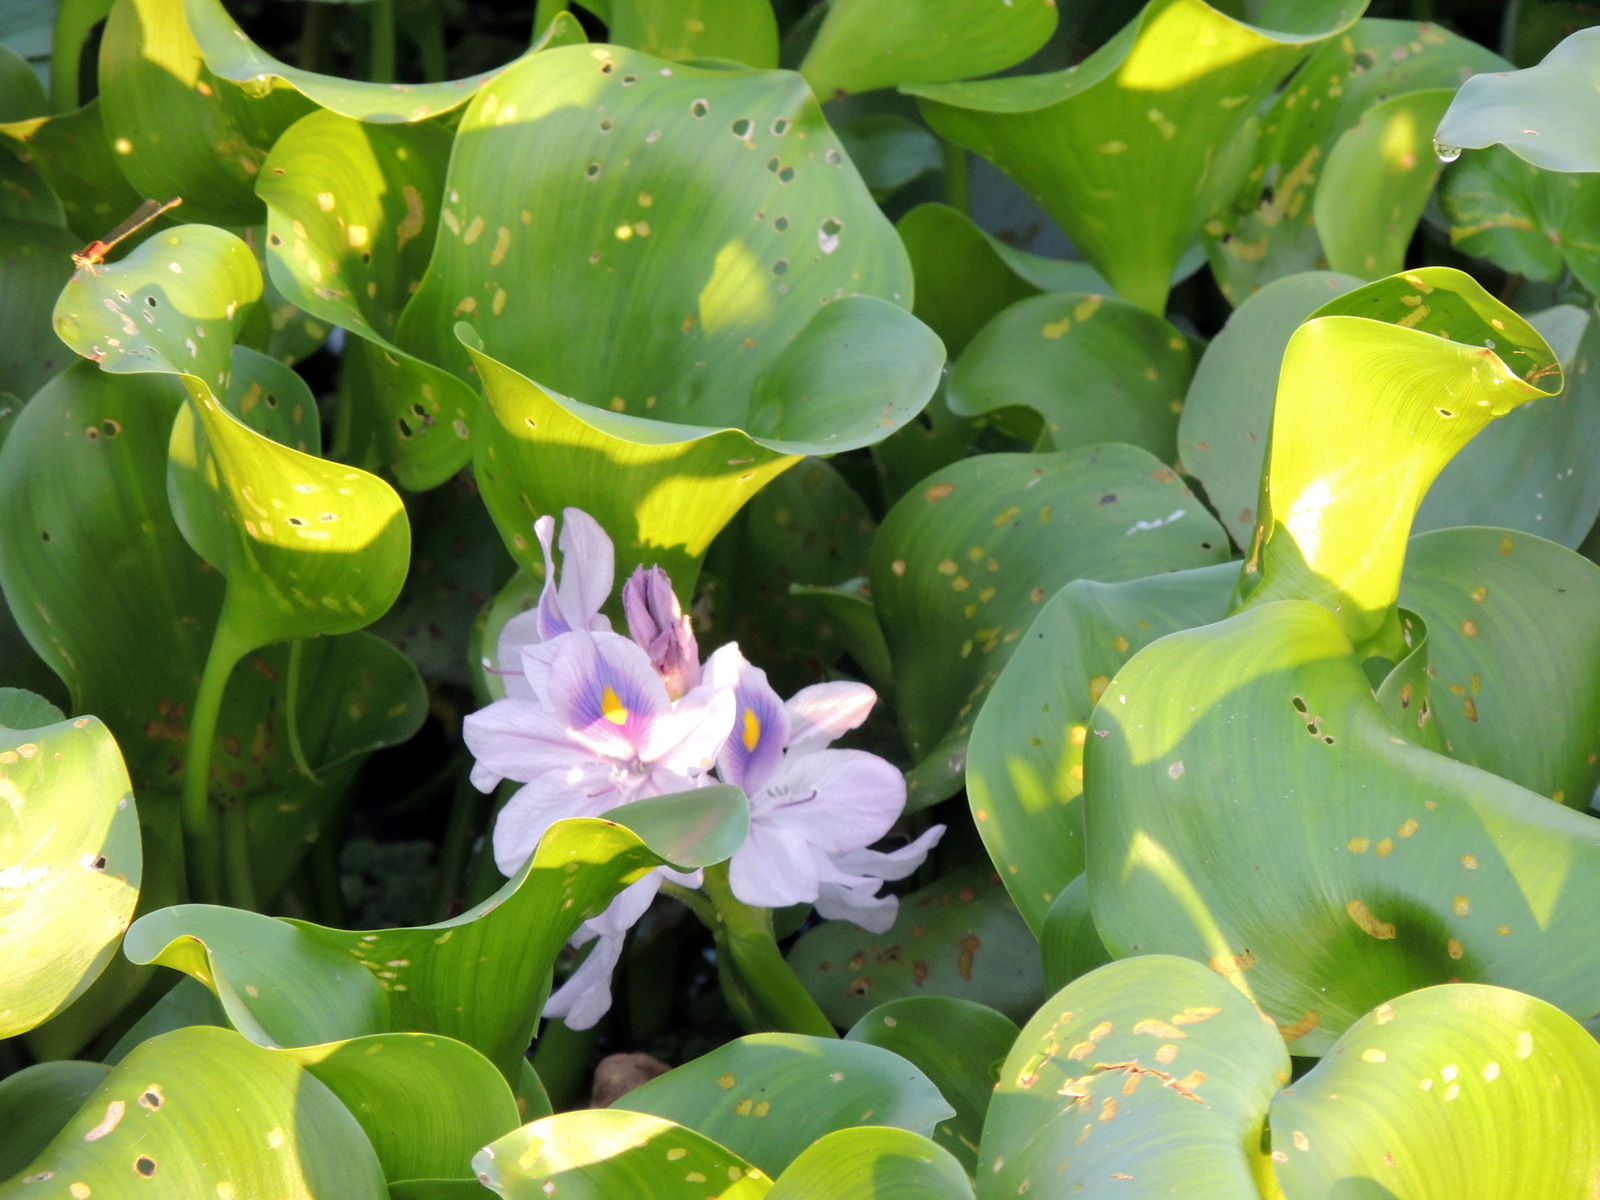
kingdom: Plantae
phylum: Tracheophyta
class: Liliopsida
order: Commelinales
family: Pontederiaceae
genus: Pontederia
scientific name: Pontederia crassipes
